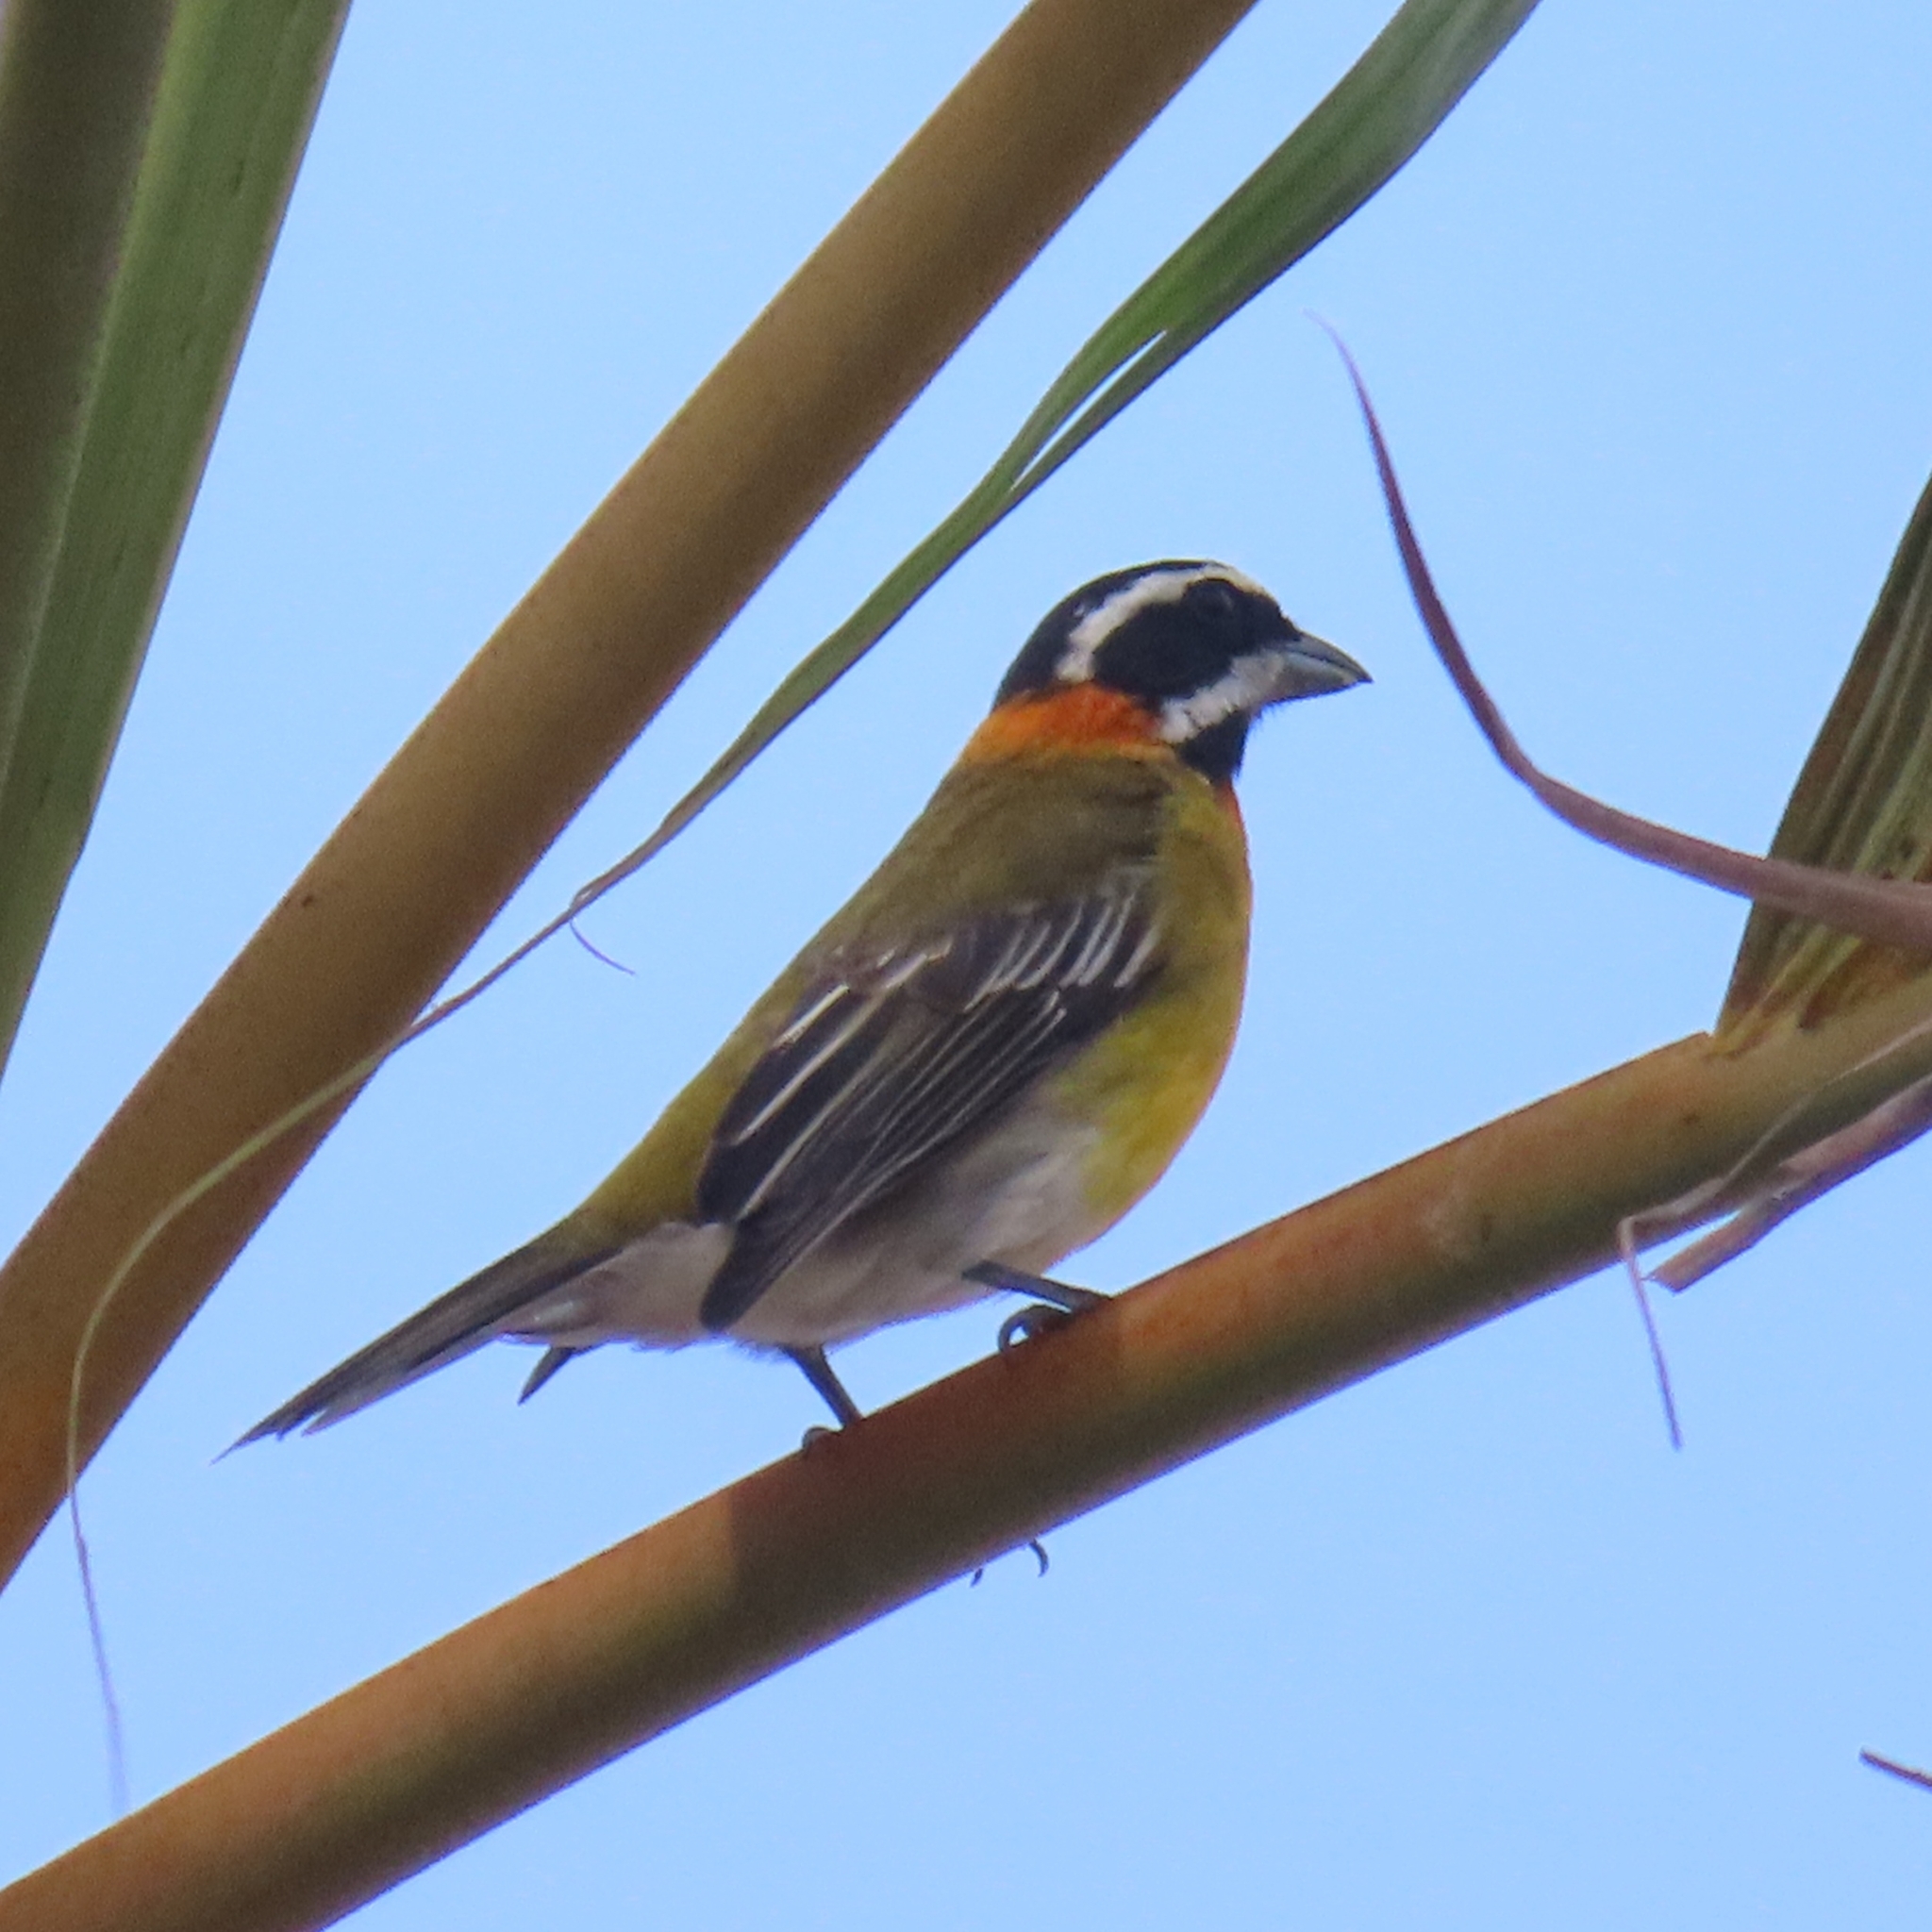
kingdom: Animalia
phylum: Chordata
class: Aves
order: Passeriformes
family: Spindalidae
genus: Spindalis
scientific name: Spindalis portoricensis
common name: Puerto rican spindalis
